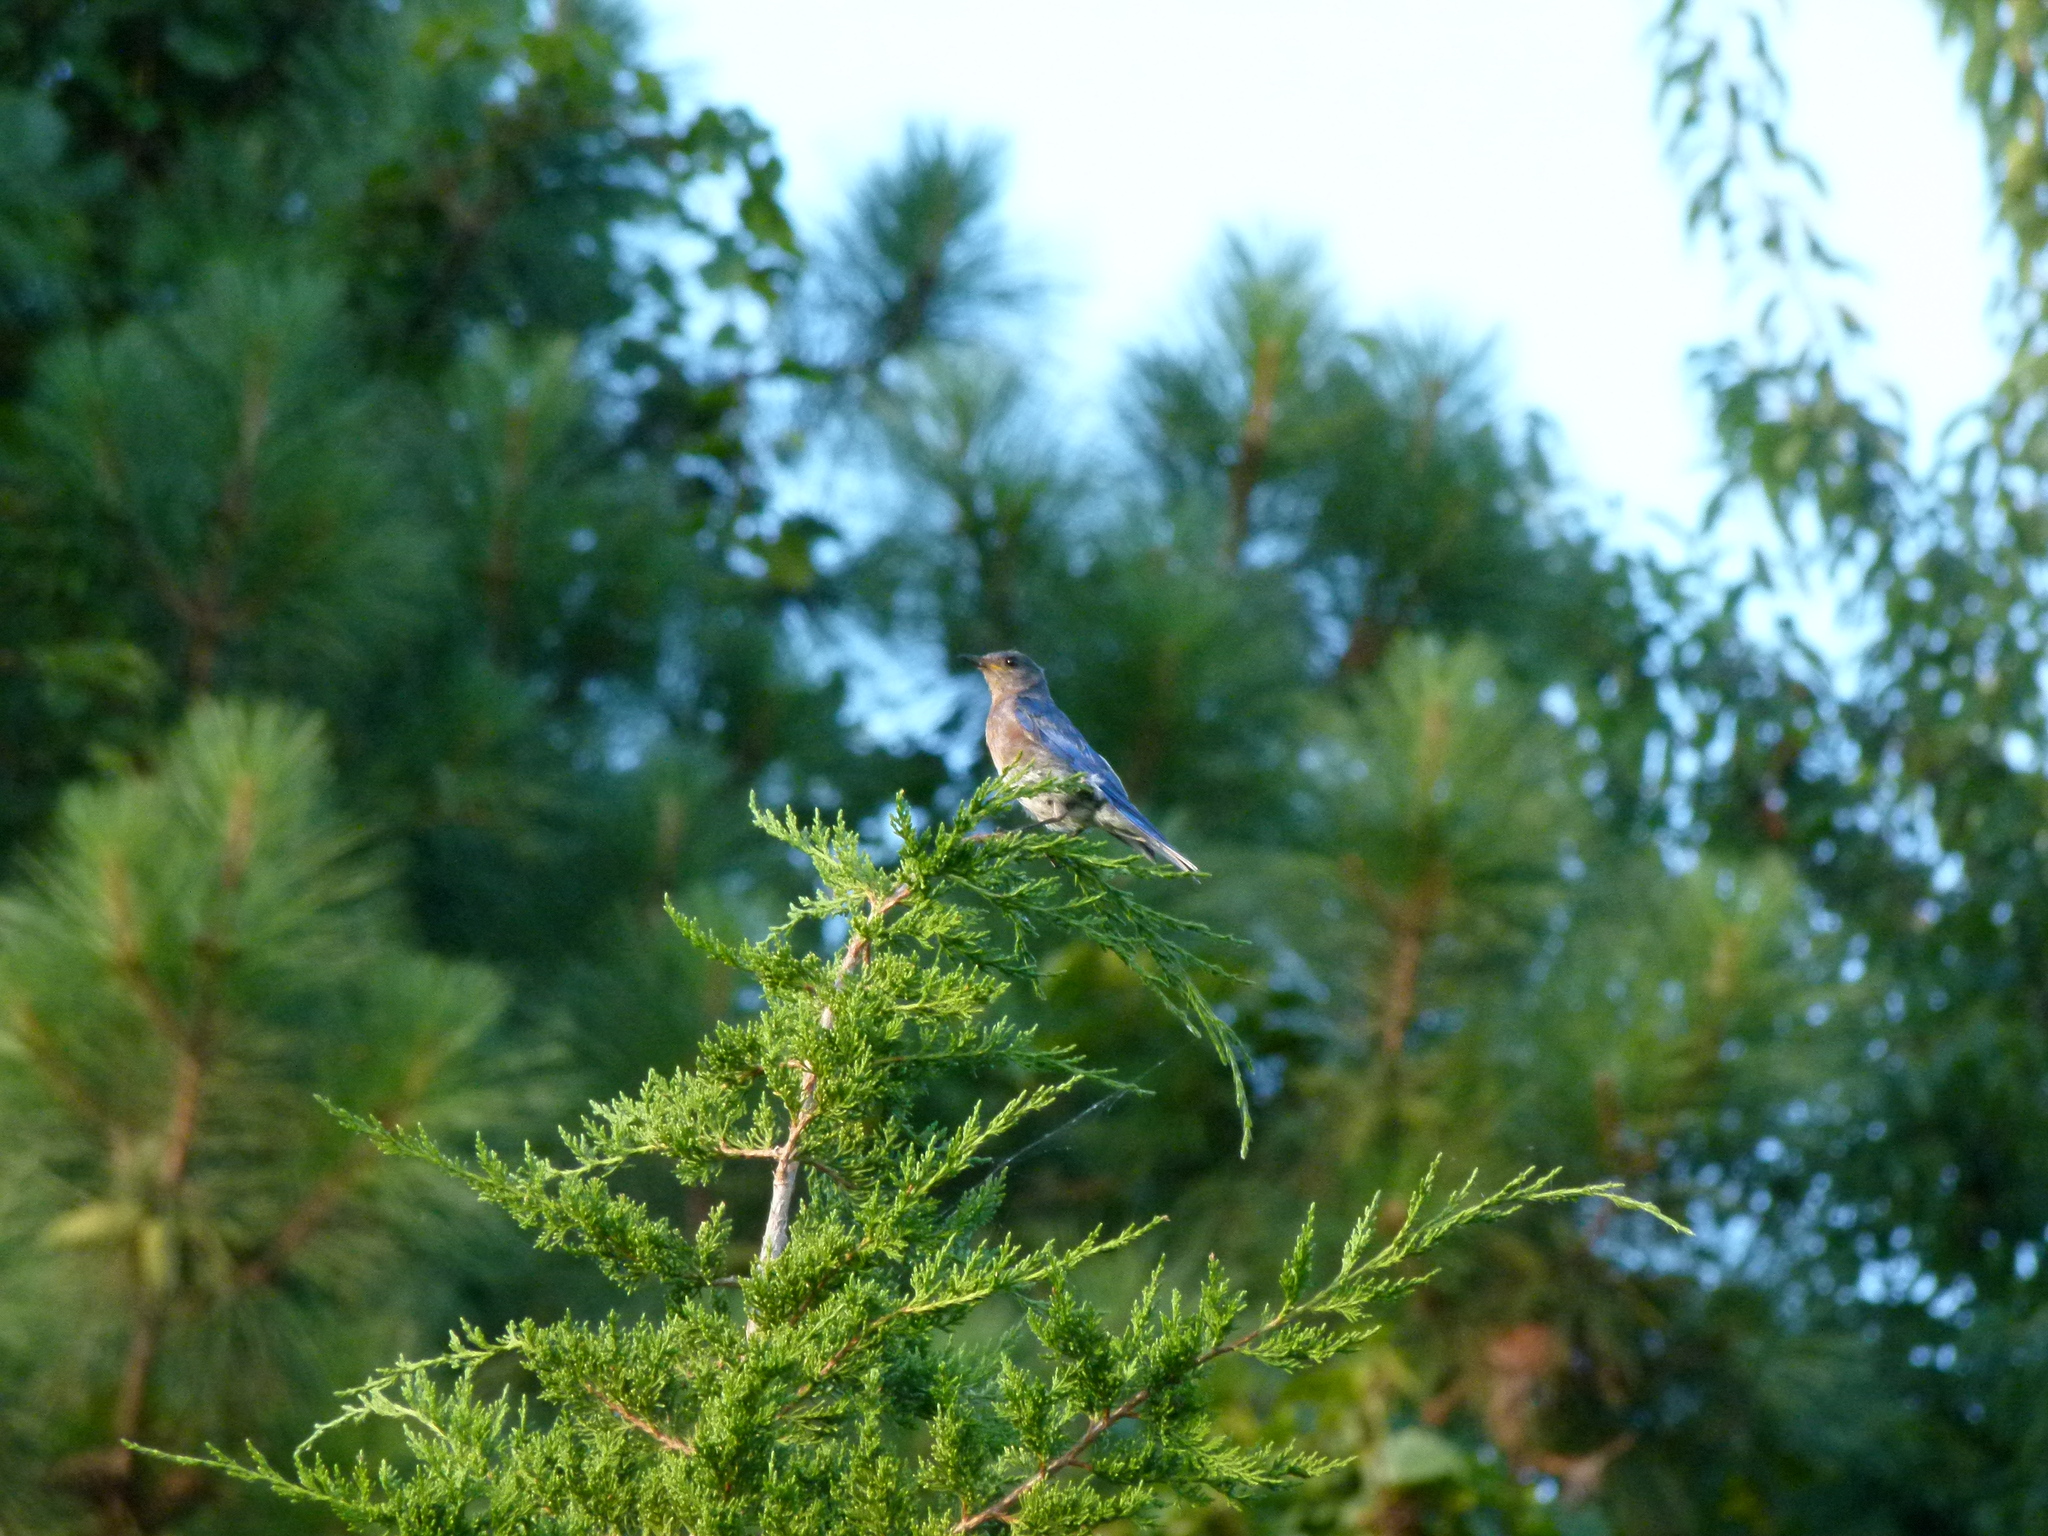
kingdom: Animalia
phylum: Chordata
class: Aves
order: Passeriformes
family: Turdidae
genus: Sialia
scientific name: Sialia sialis
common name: Eastern bluebird
